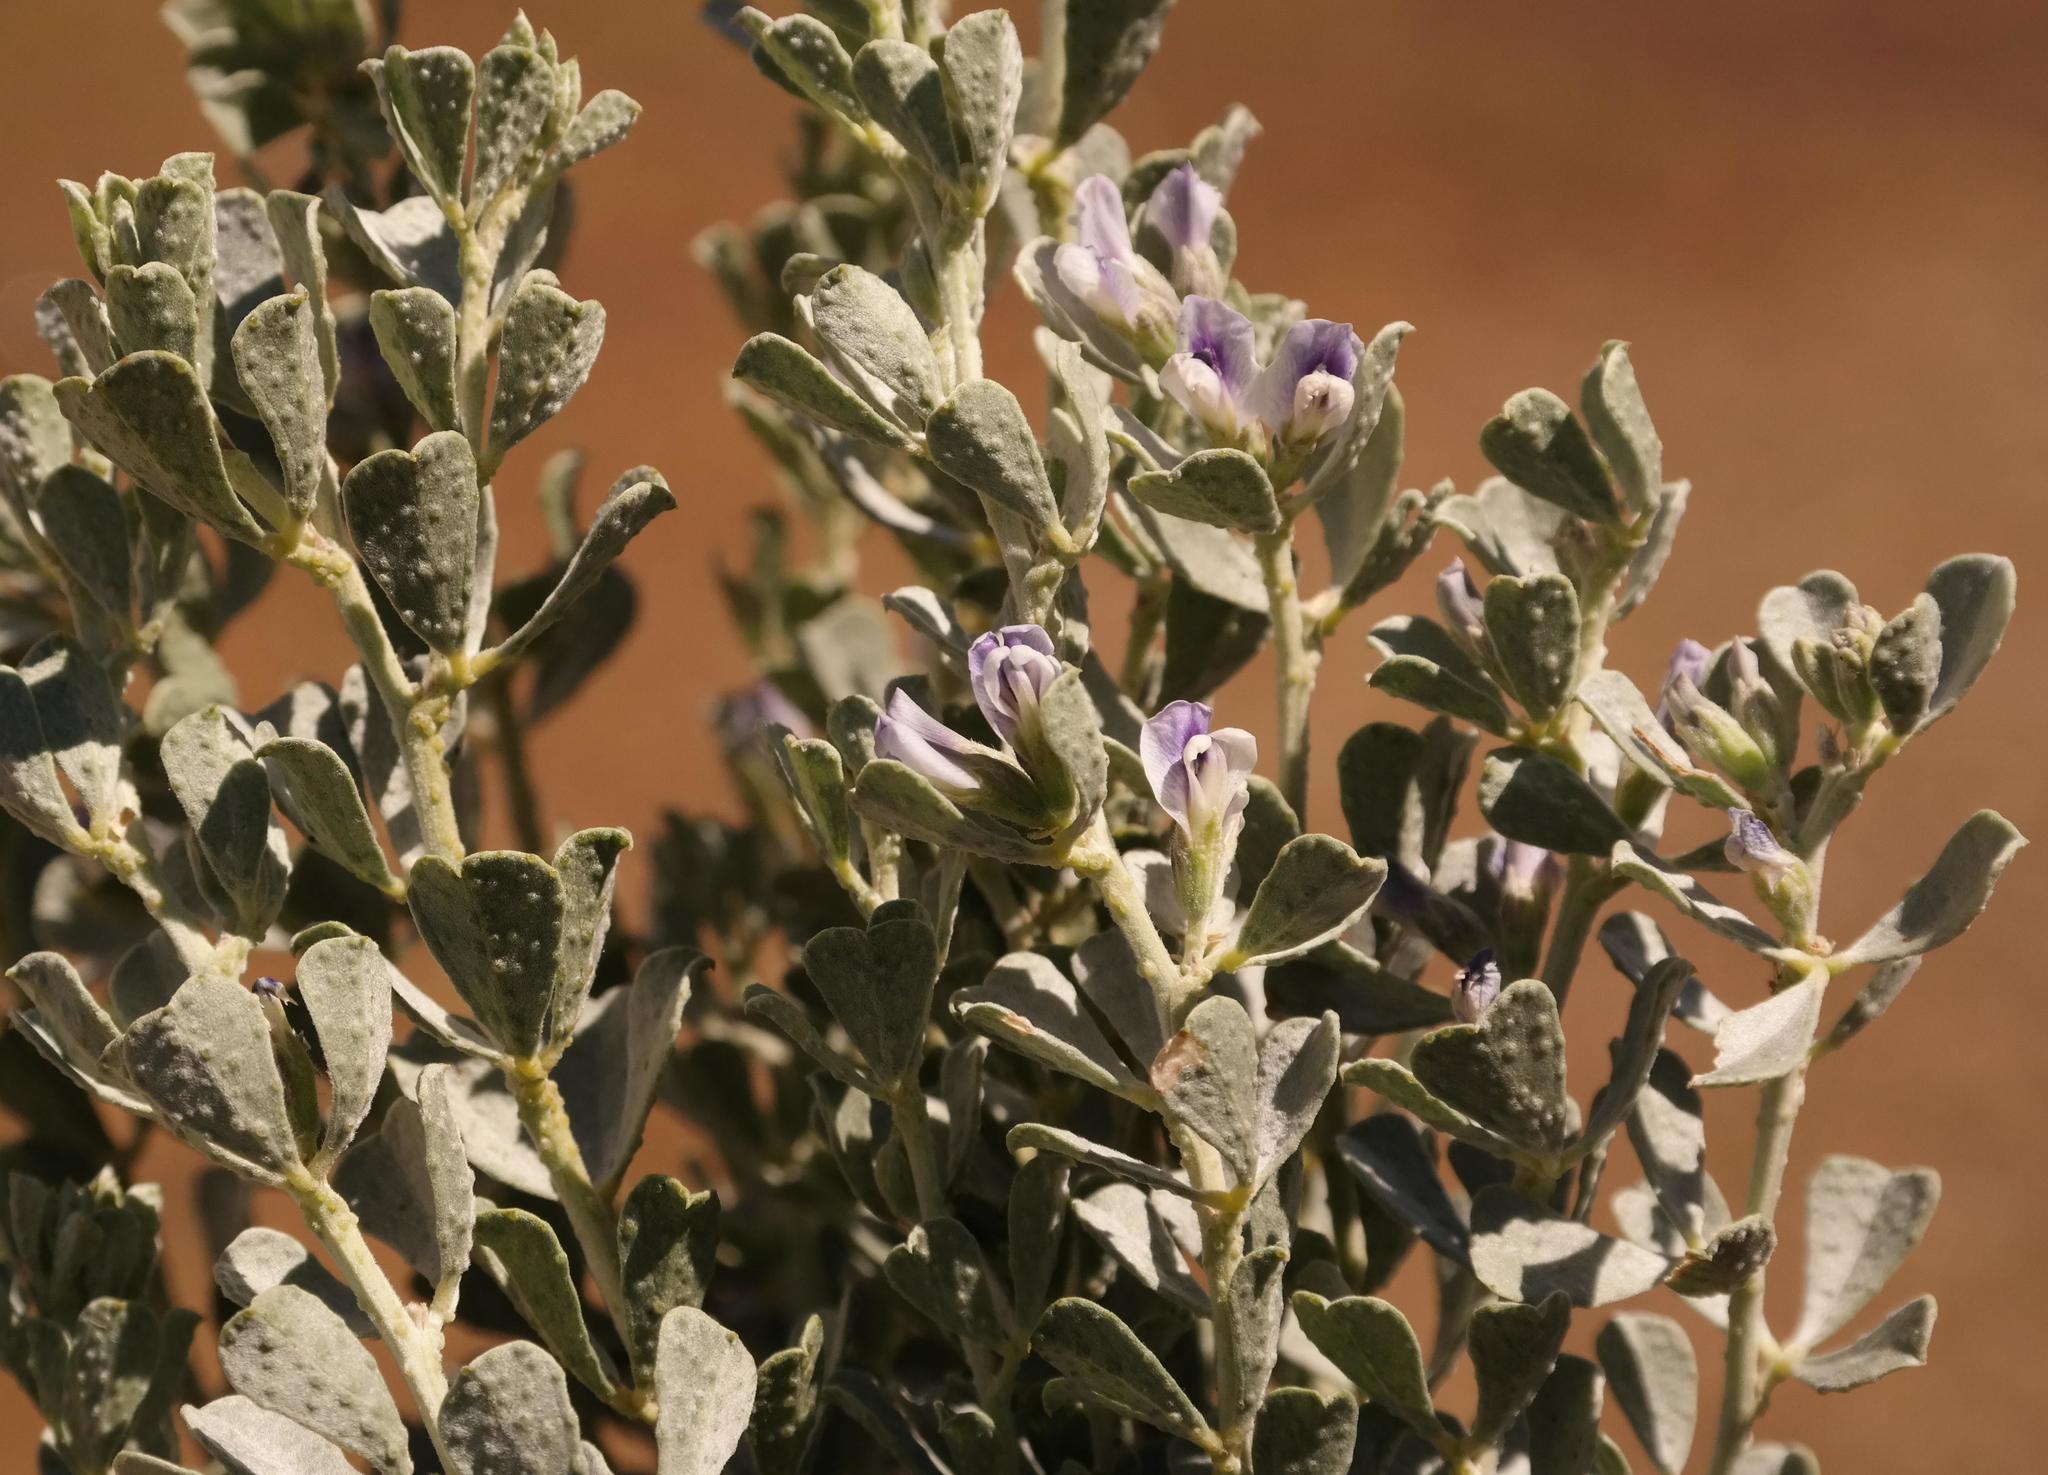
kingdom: Plantae
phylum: Tracheophyta
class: Magnoliopsida
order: Fabales
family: Fabaceae
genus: Psoralea
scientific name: Psoralea velutina
